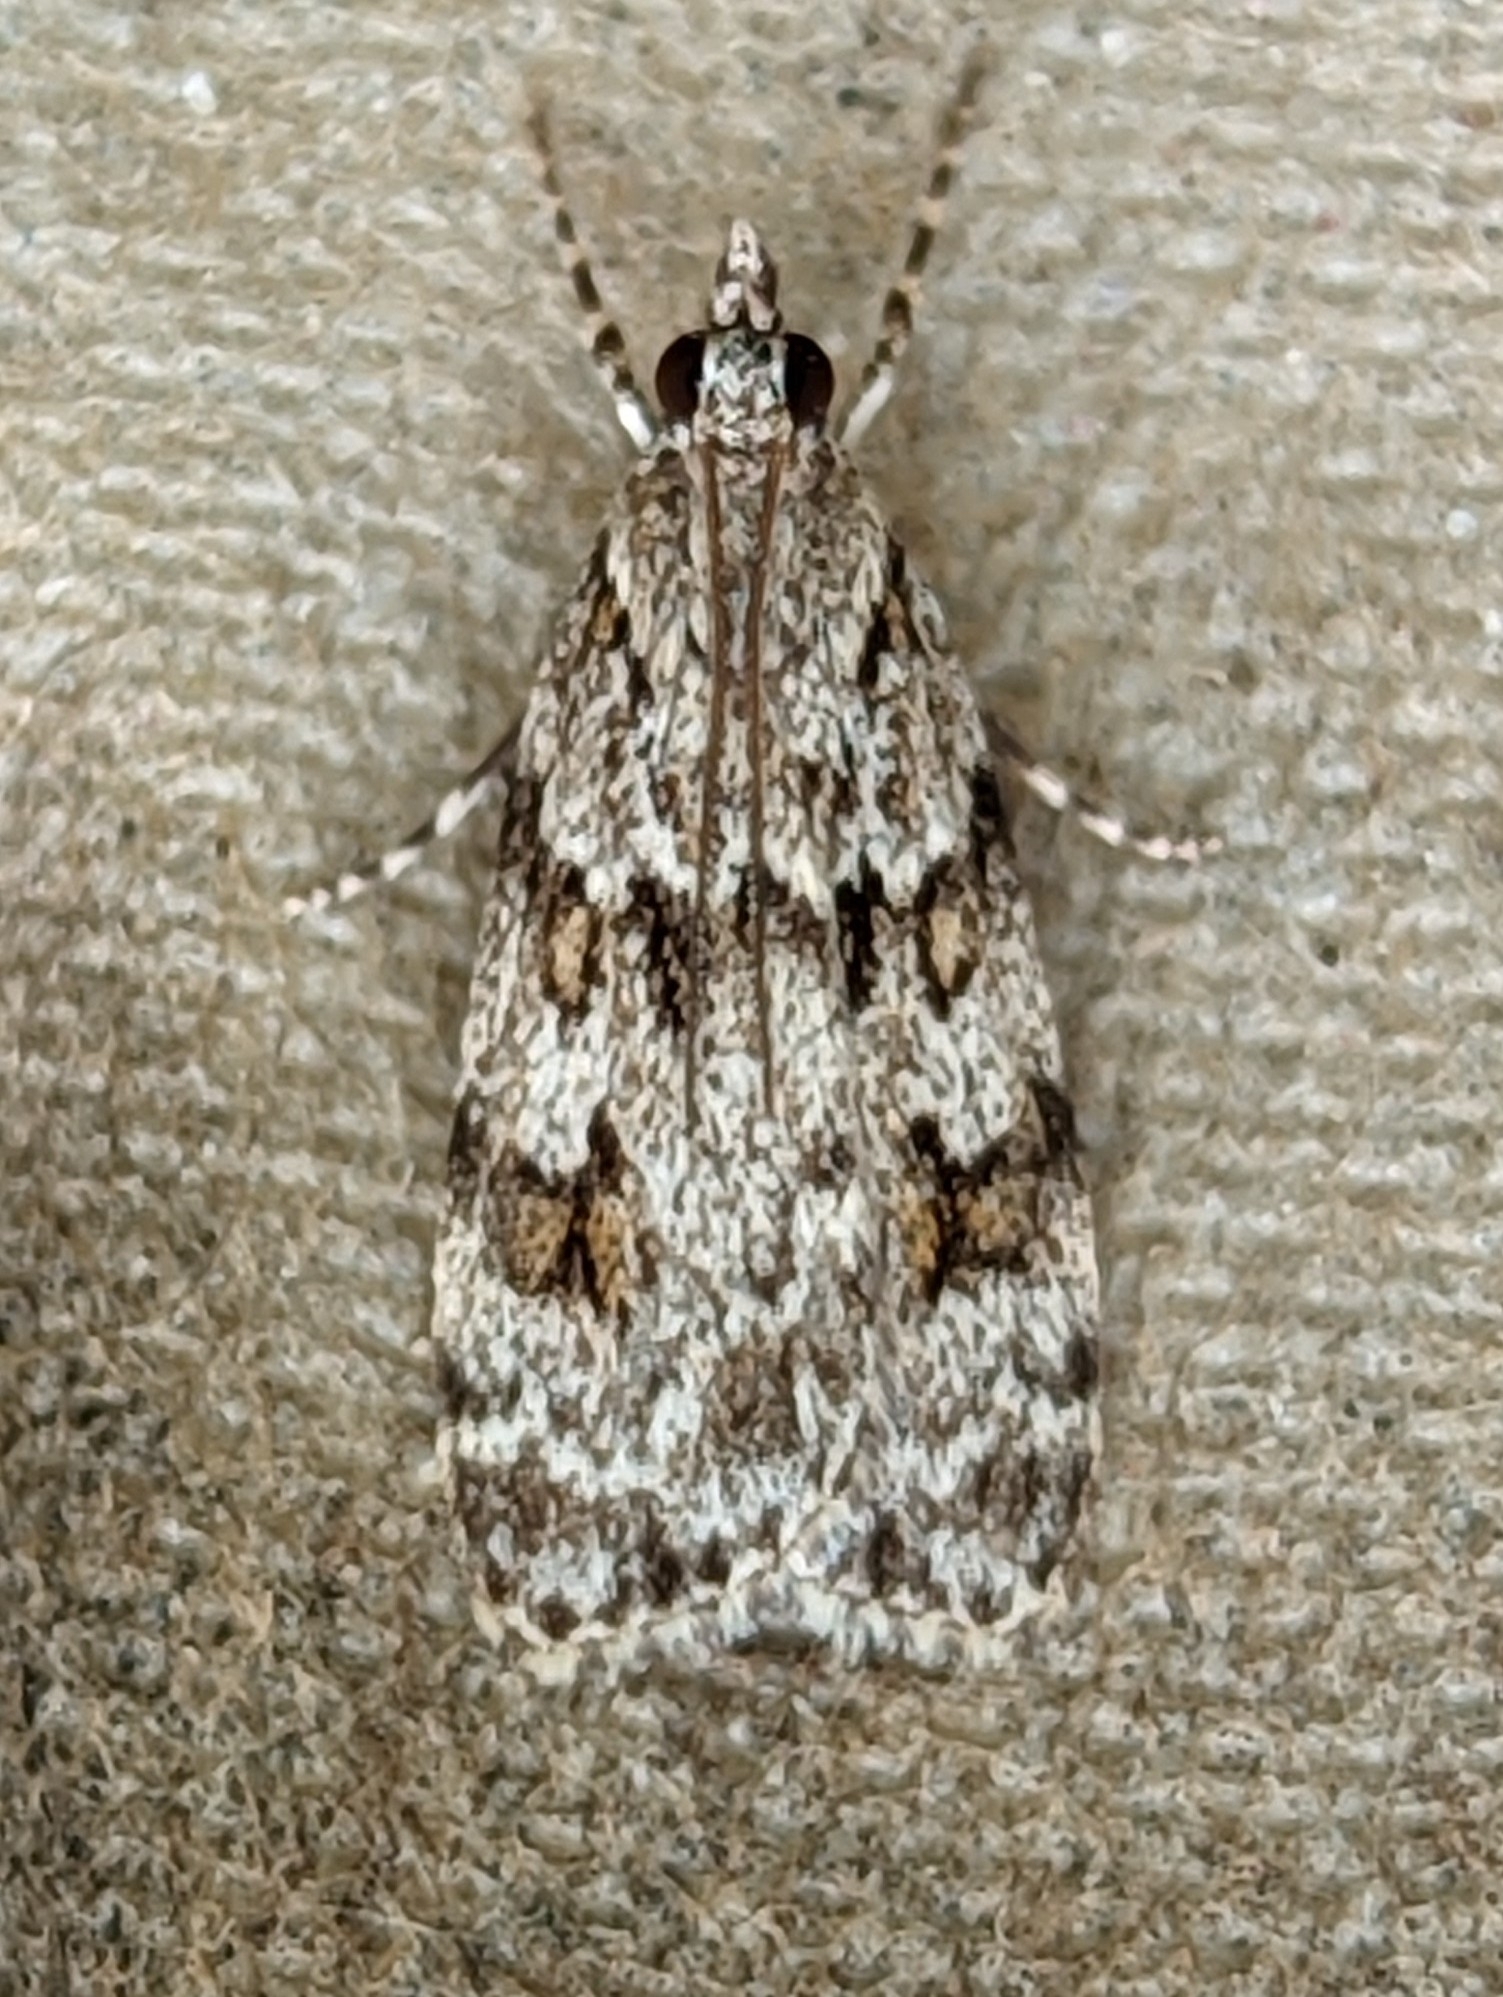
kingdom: Animalia
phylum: Arthropoda
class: Insecta
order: Lepidoptera
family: Crambidae
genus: Scoparia
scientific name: Scoparia pyralella
